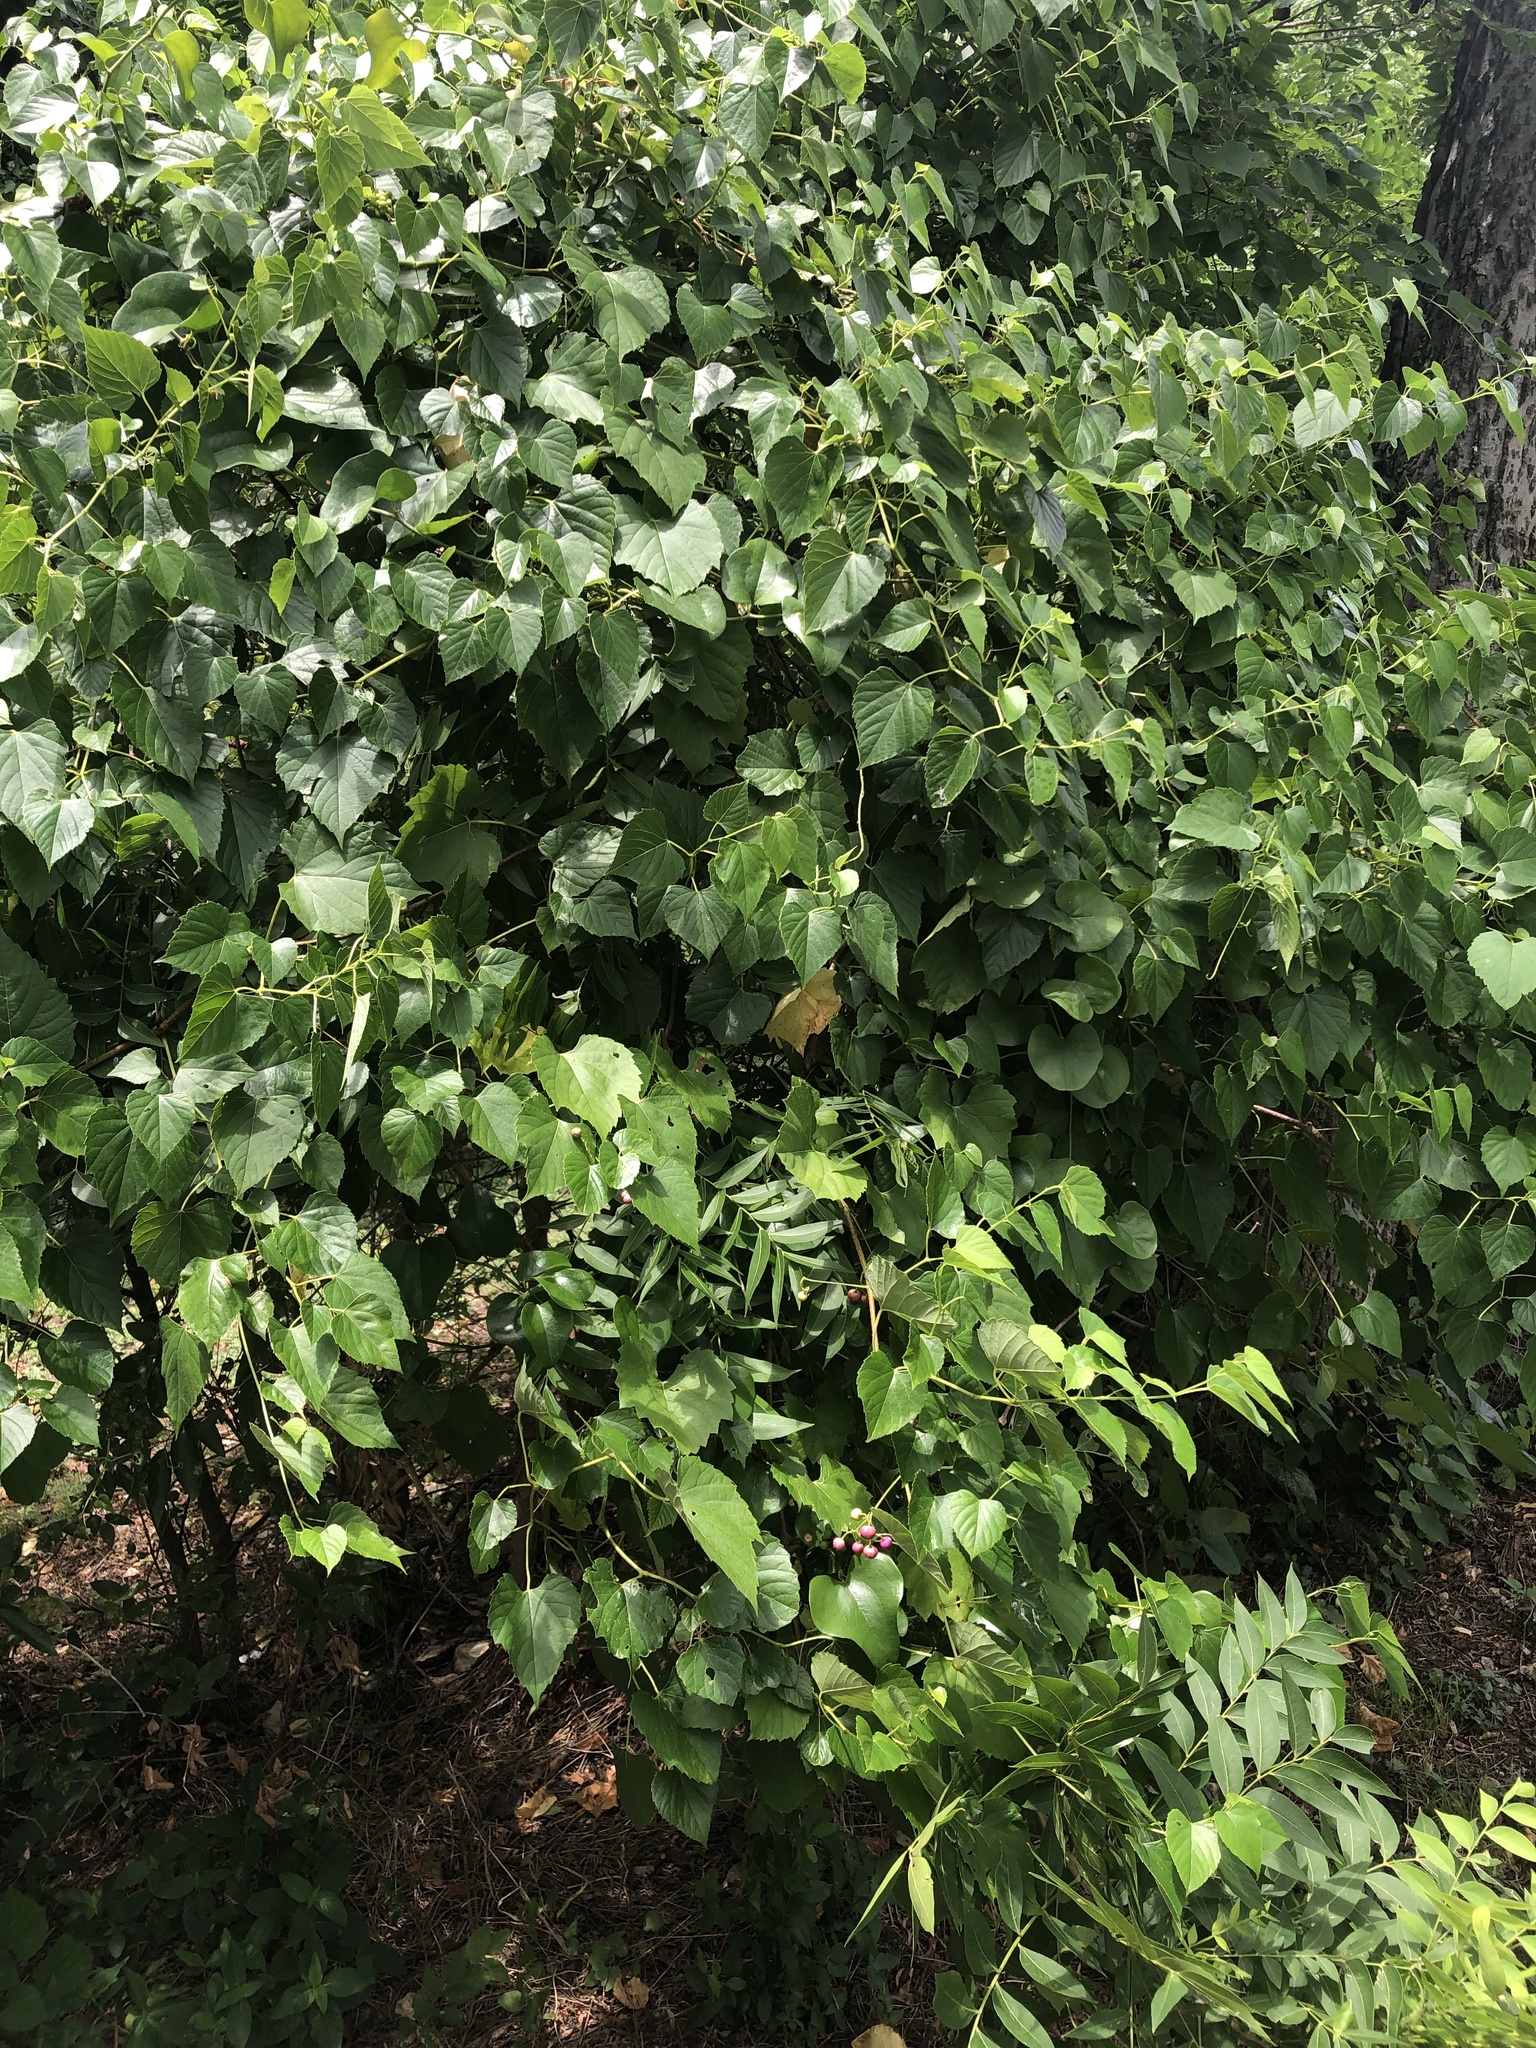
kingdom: Plantae
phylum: Tracheophyta
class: Magnoliopsida
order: Vitales
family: Vitaceae
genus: Ampelopsis
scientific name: Ampelopsis cordata
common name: Heart-leaf ampelopsis
